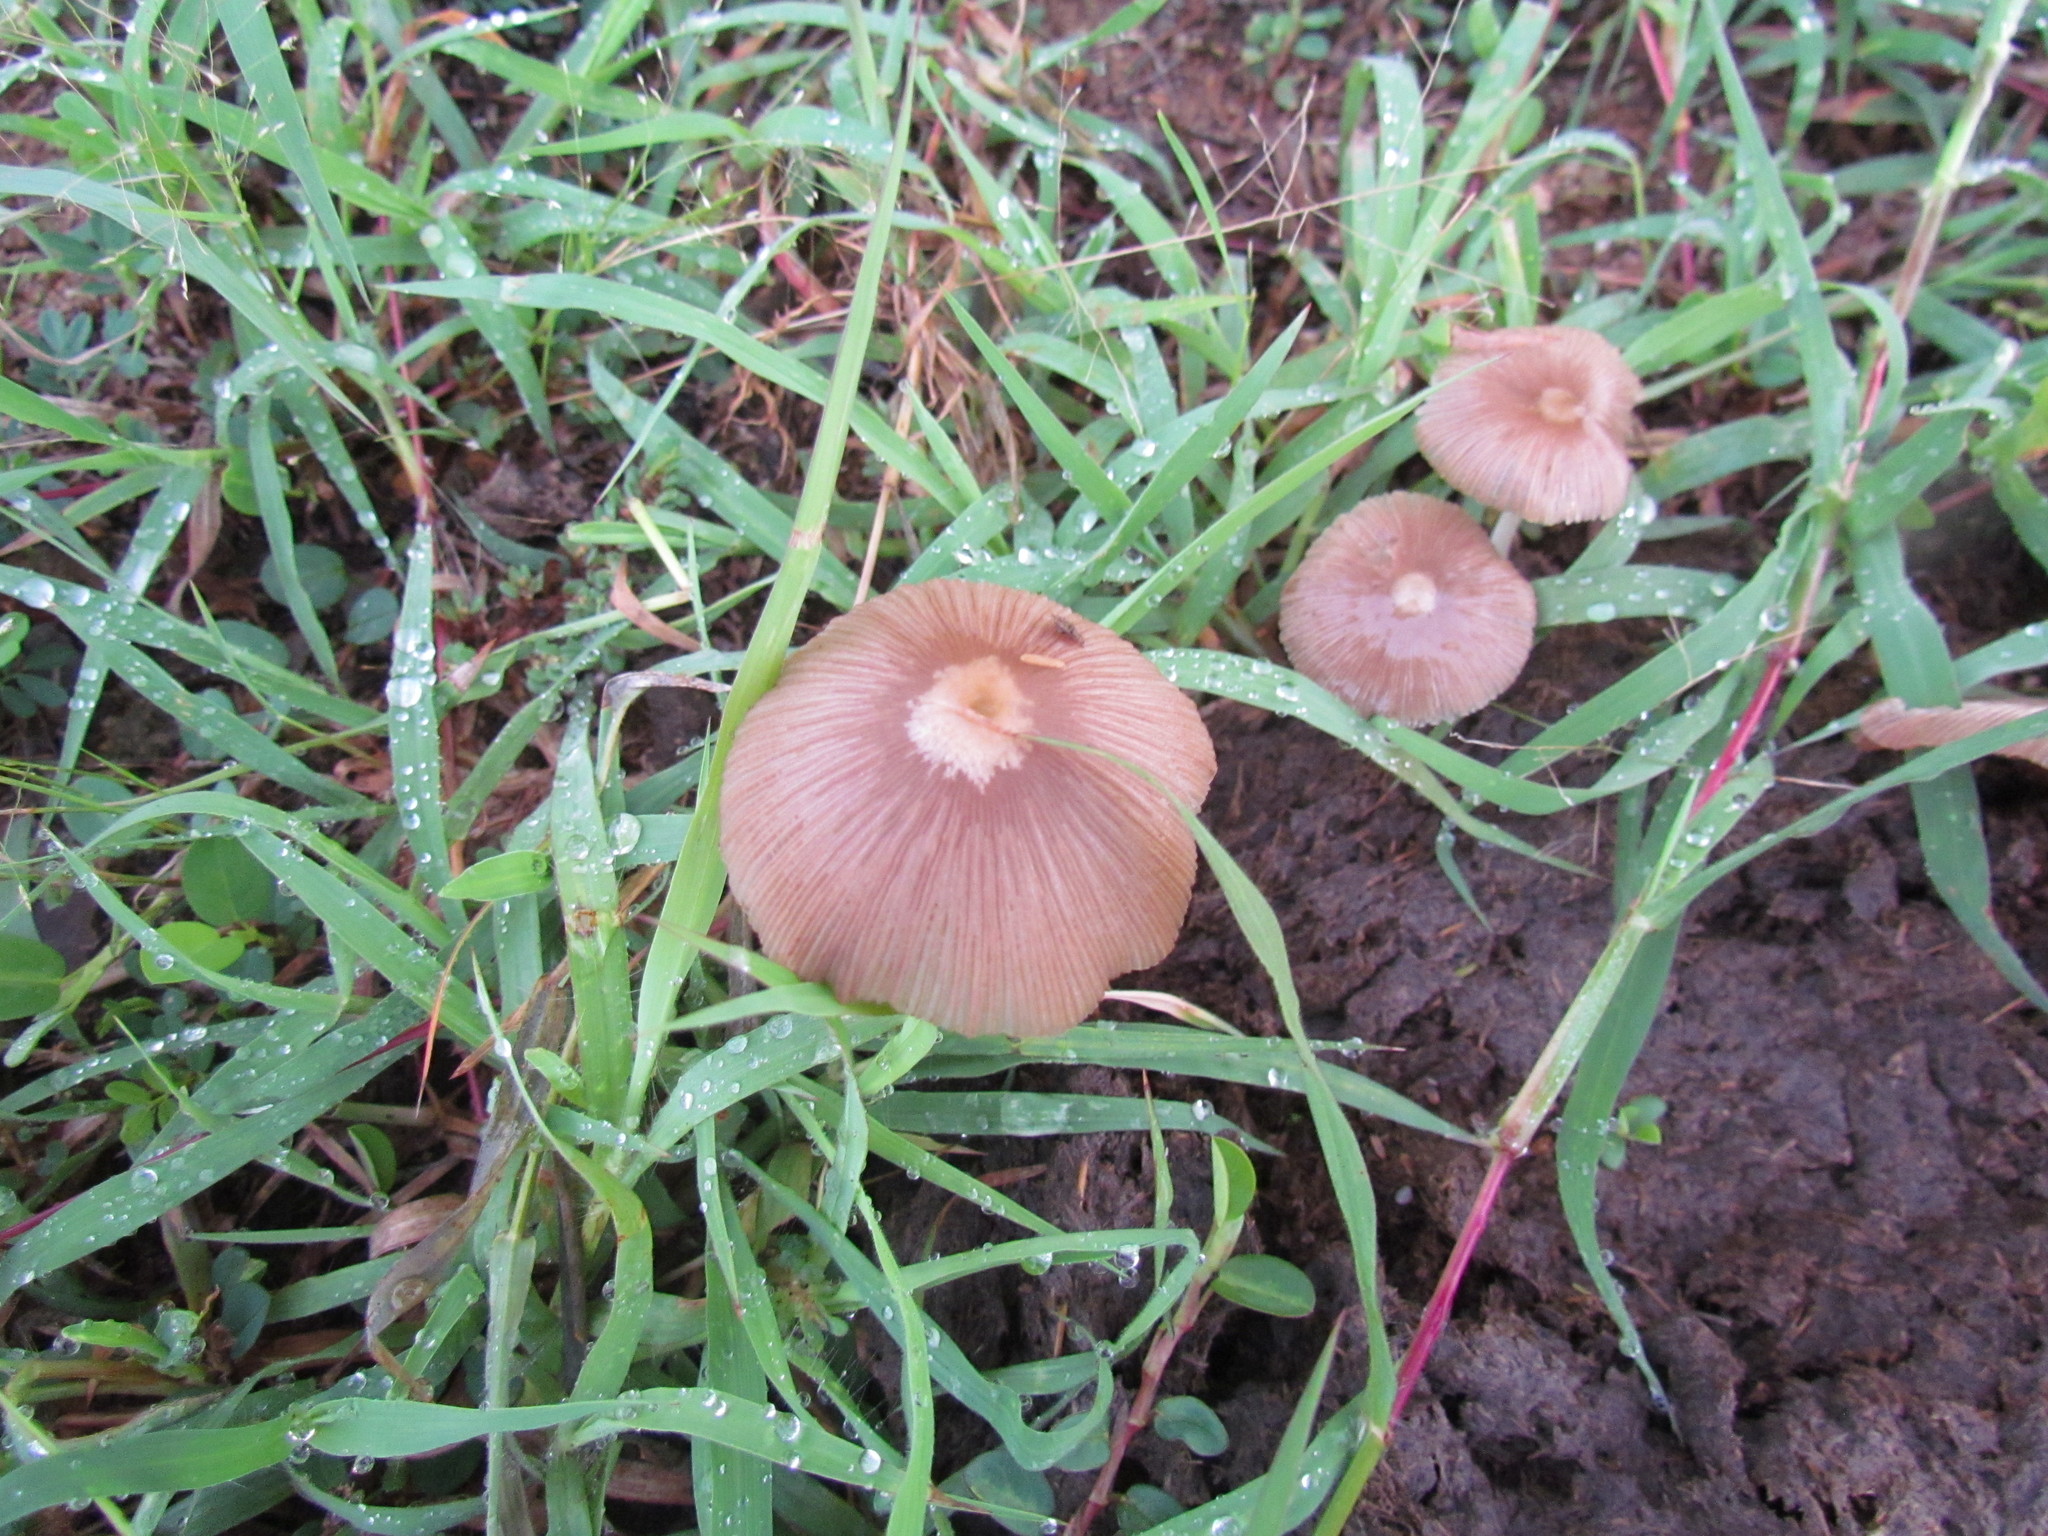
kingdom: Fungi
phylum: Basidiomycota
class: Agaricomycetes
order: Agaricales
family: Bolbitiaceae
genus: Bolbitius
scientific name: Bolbitius coprophilus
